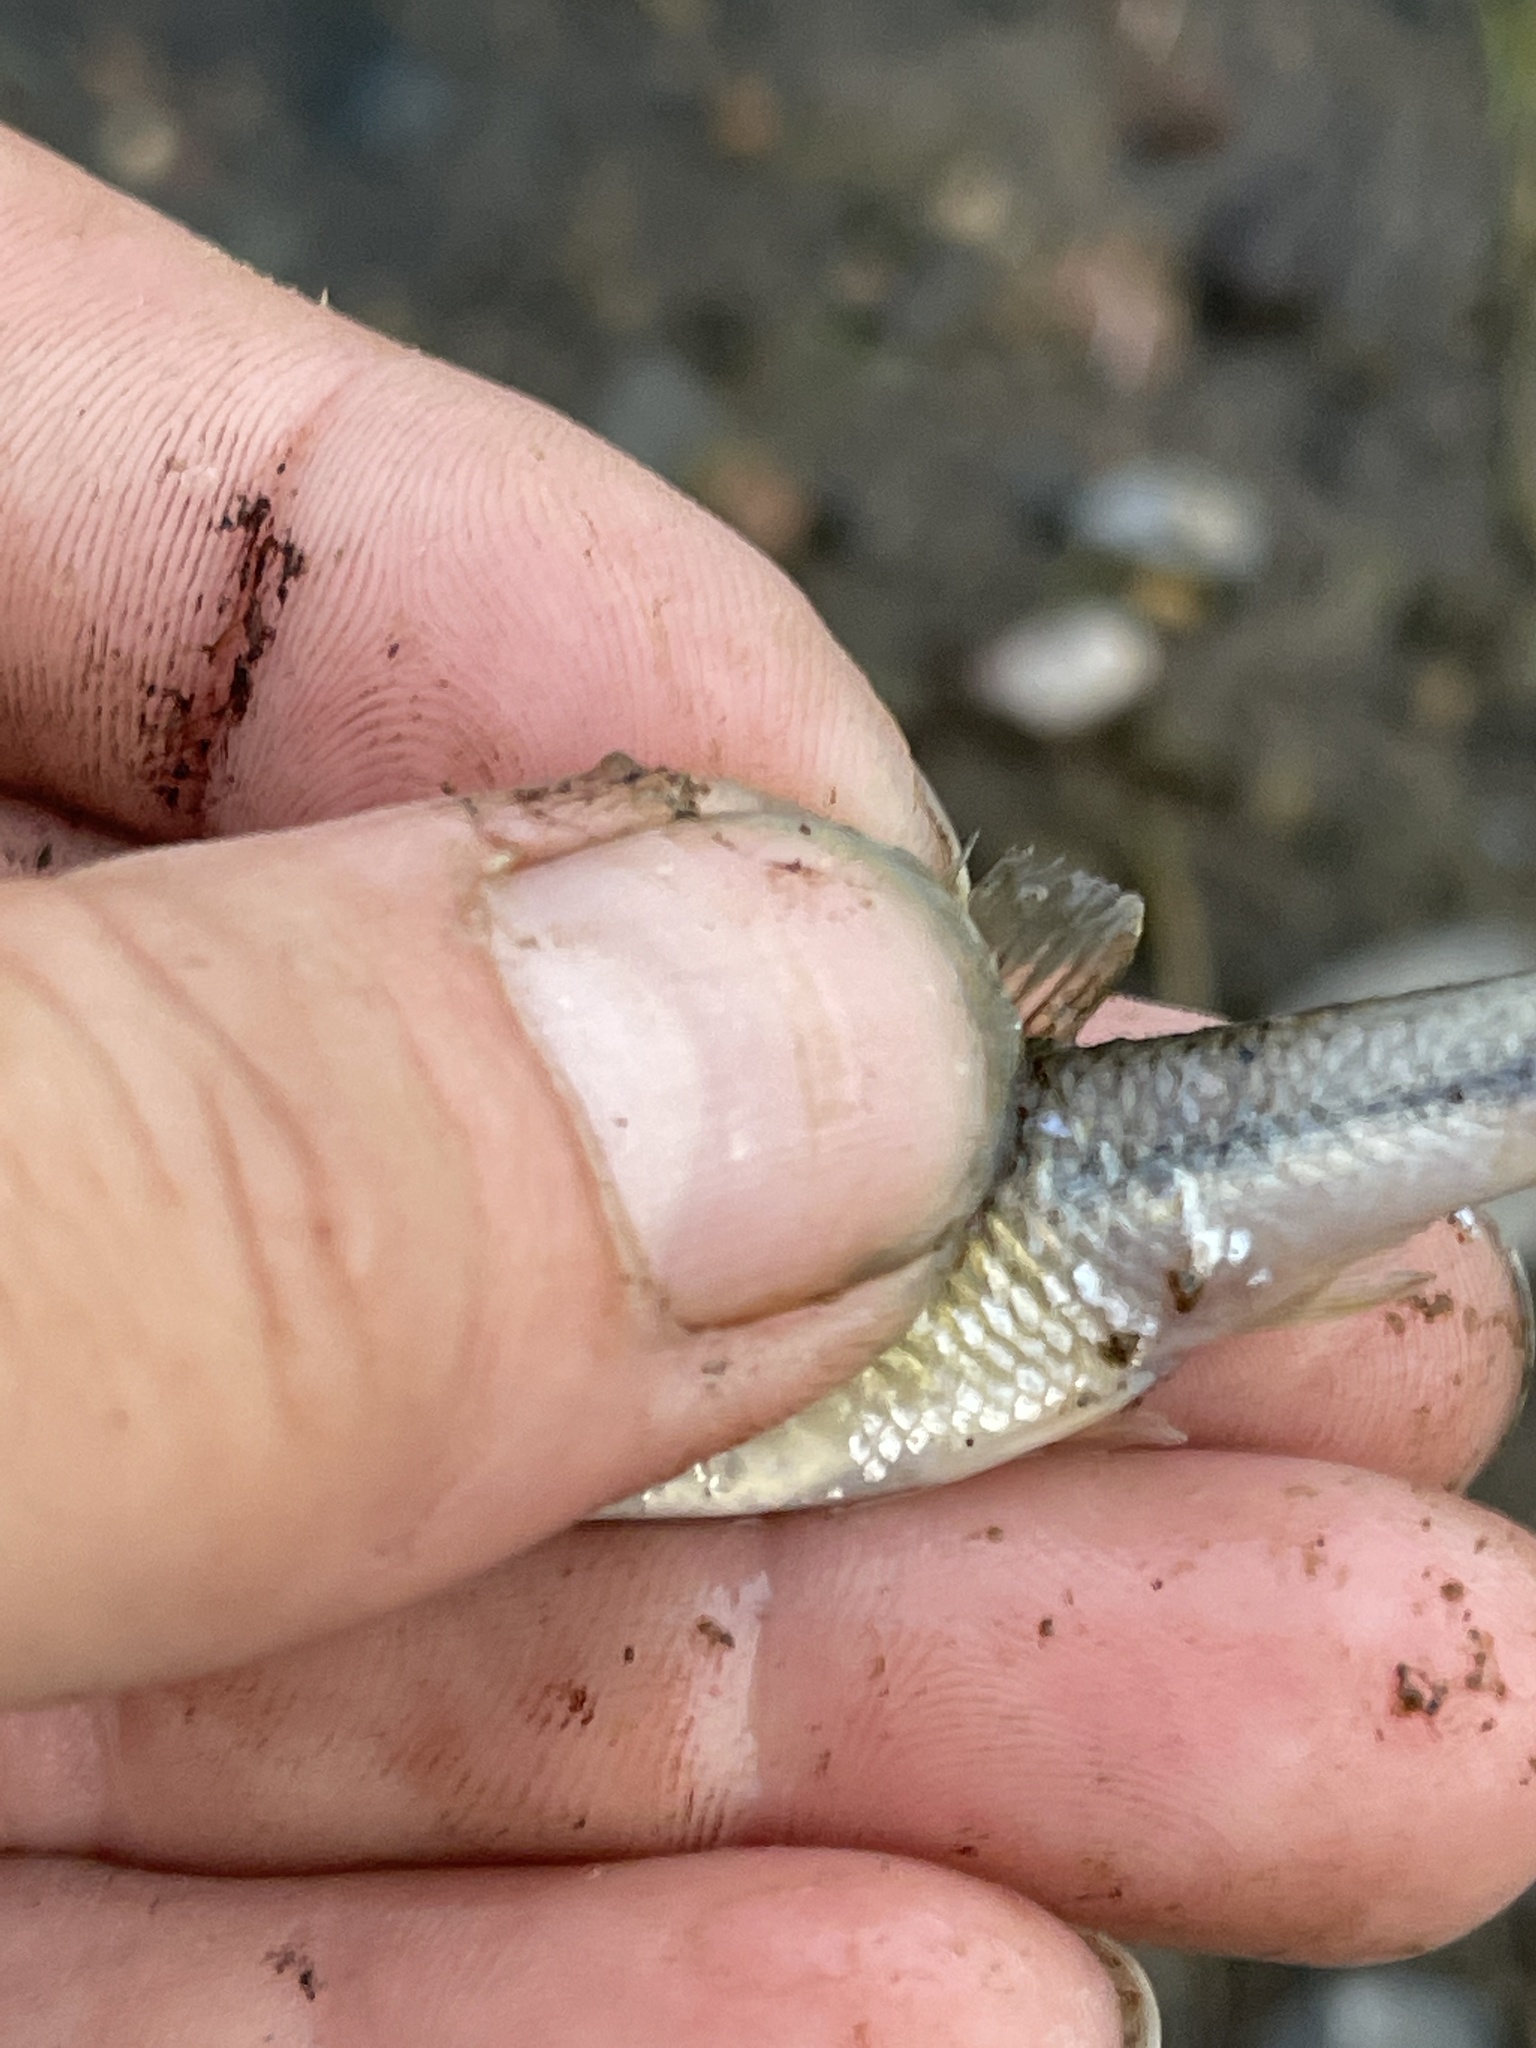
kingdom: Animalia
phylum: Chordata
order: Cypriniformes
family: Cyprinidae
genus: Pimephales
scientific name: Pimephales promelas
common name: Fathead minnow
